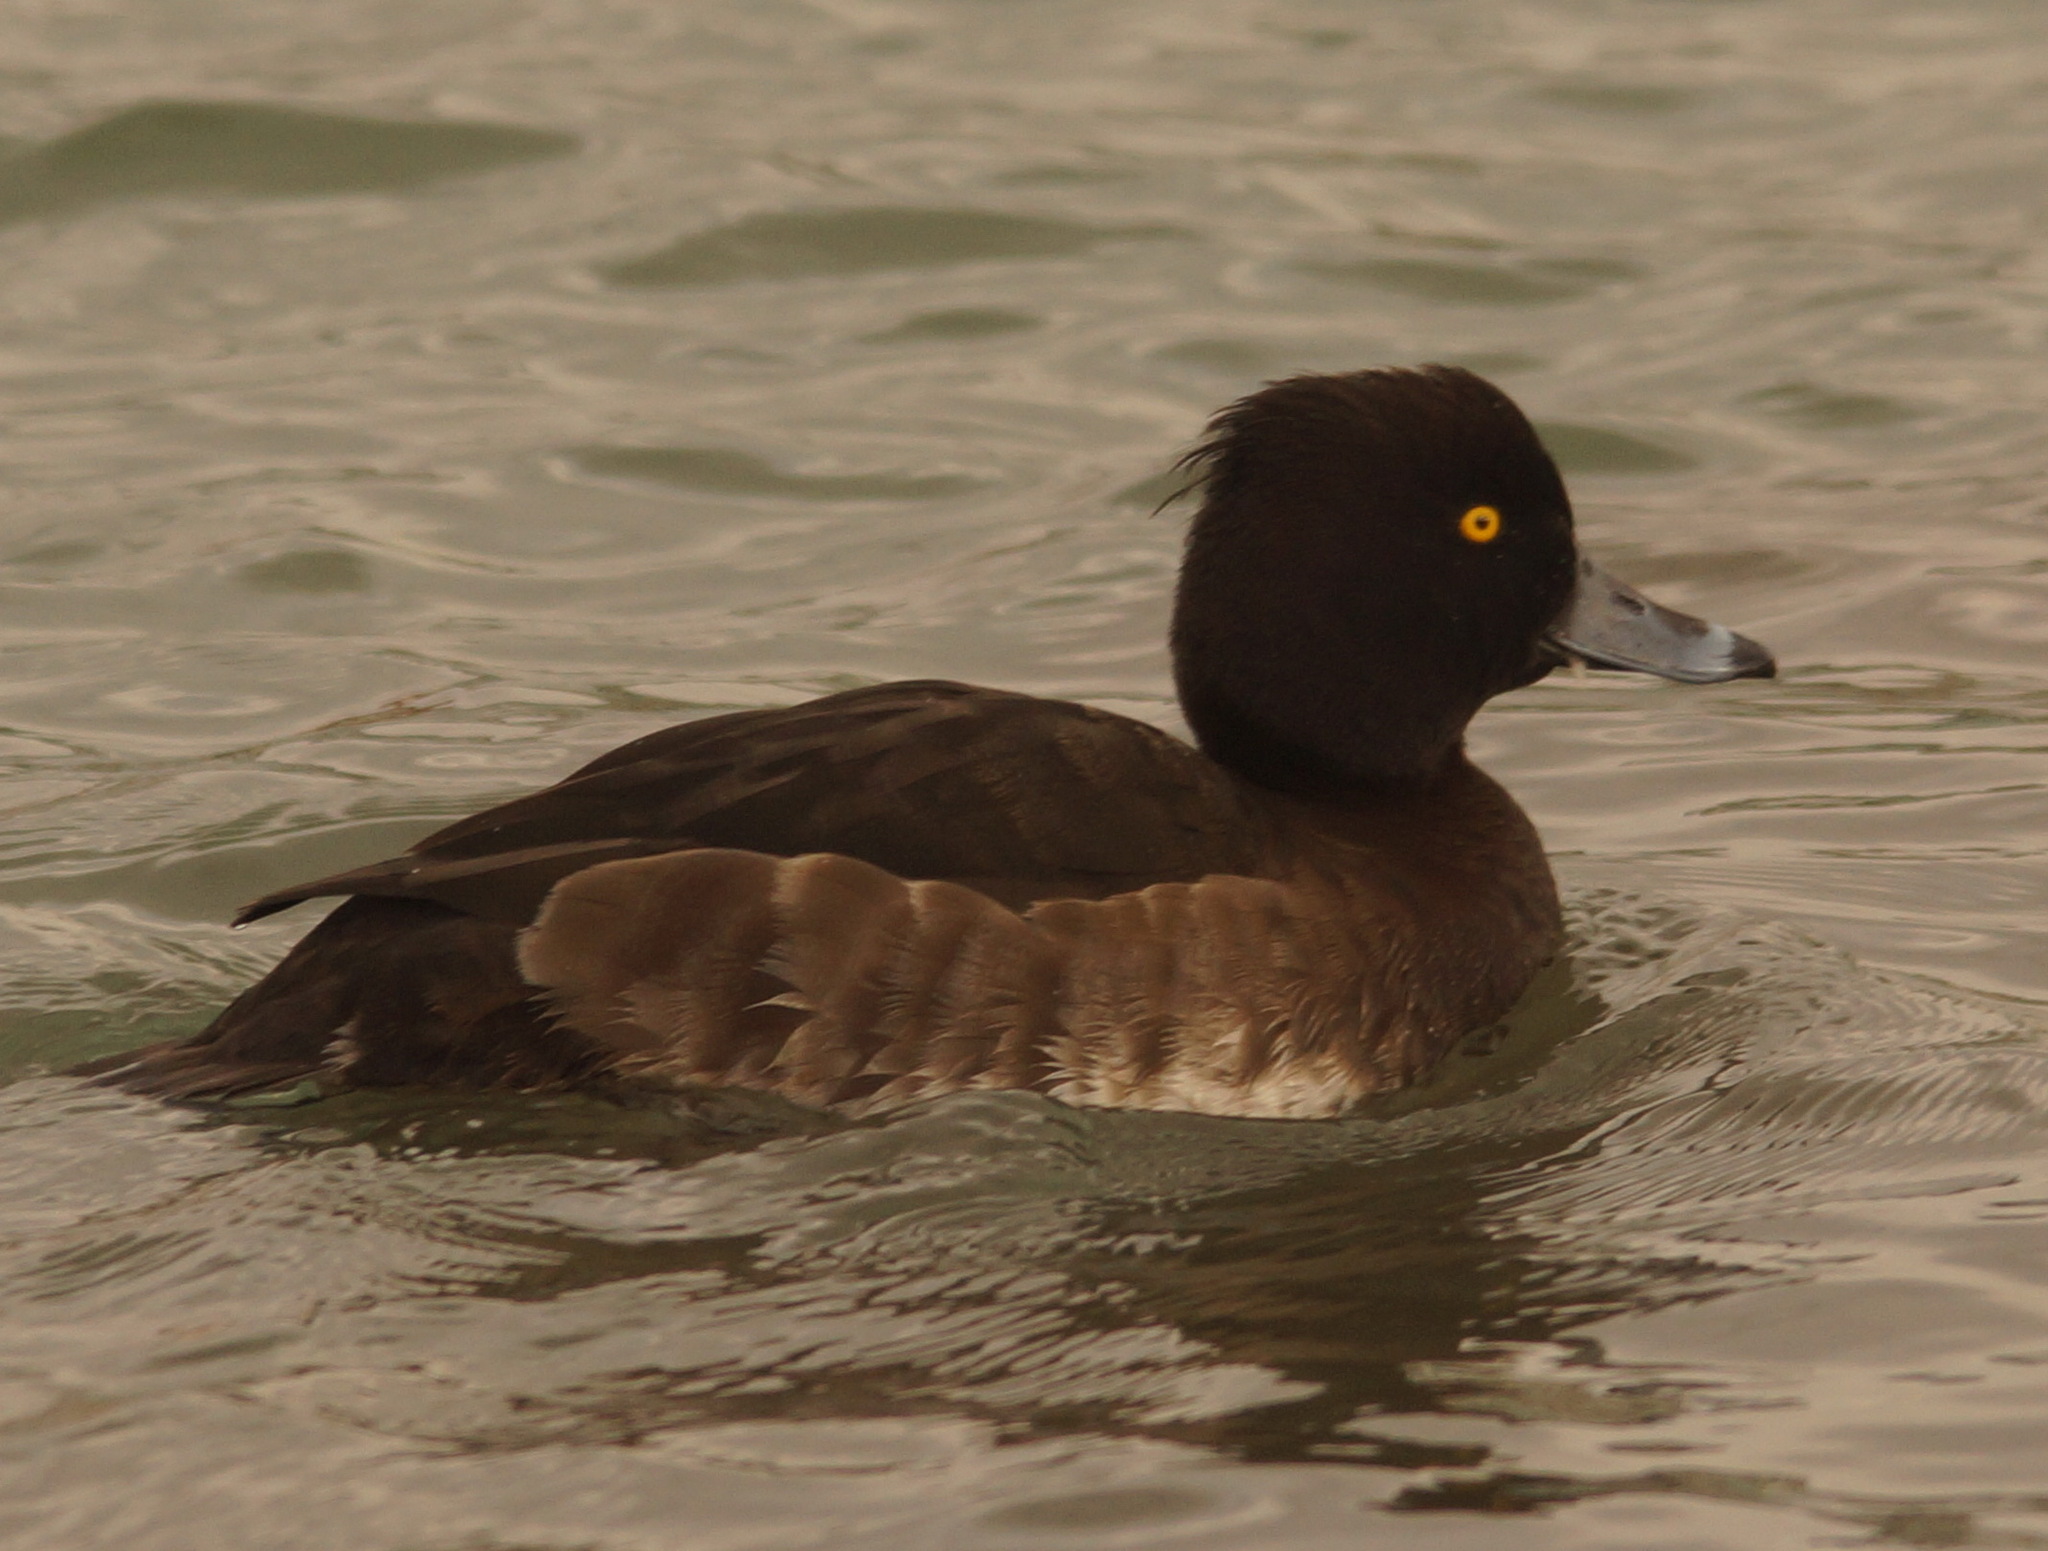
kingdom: Animalia
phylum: Chordata
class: Aves
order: Anseriformes
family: Anatidae
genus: Aythya
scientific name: Aythya fuligula
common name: Tufted duck
